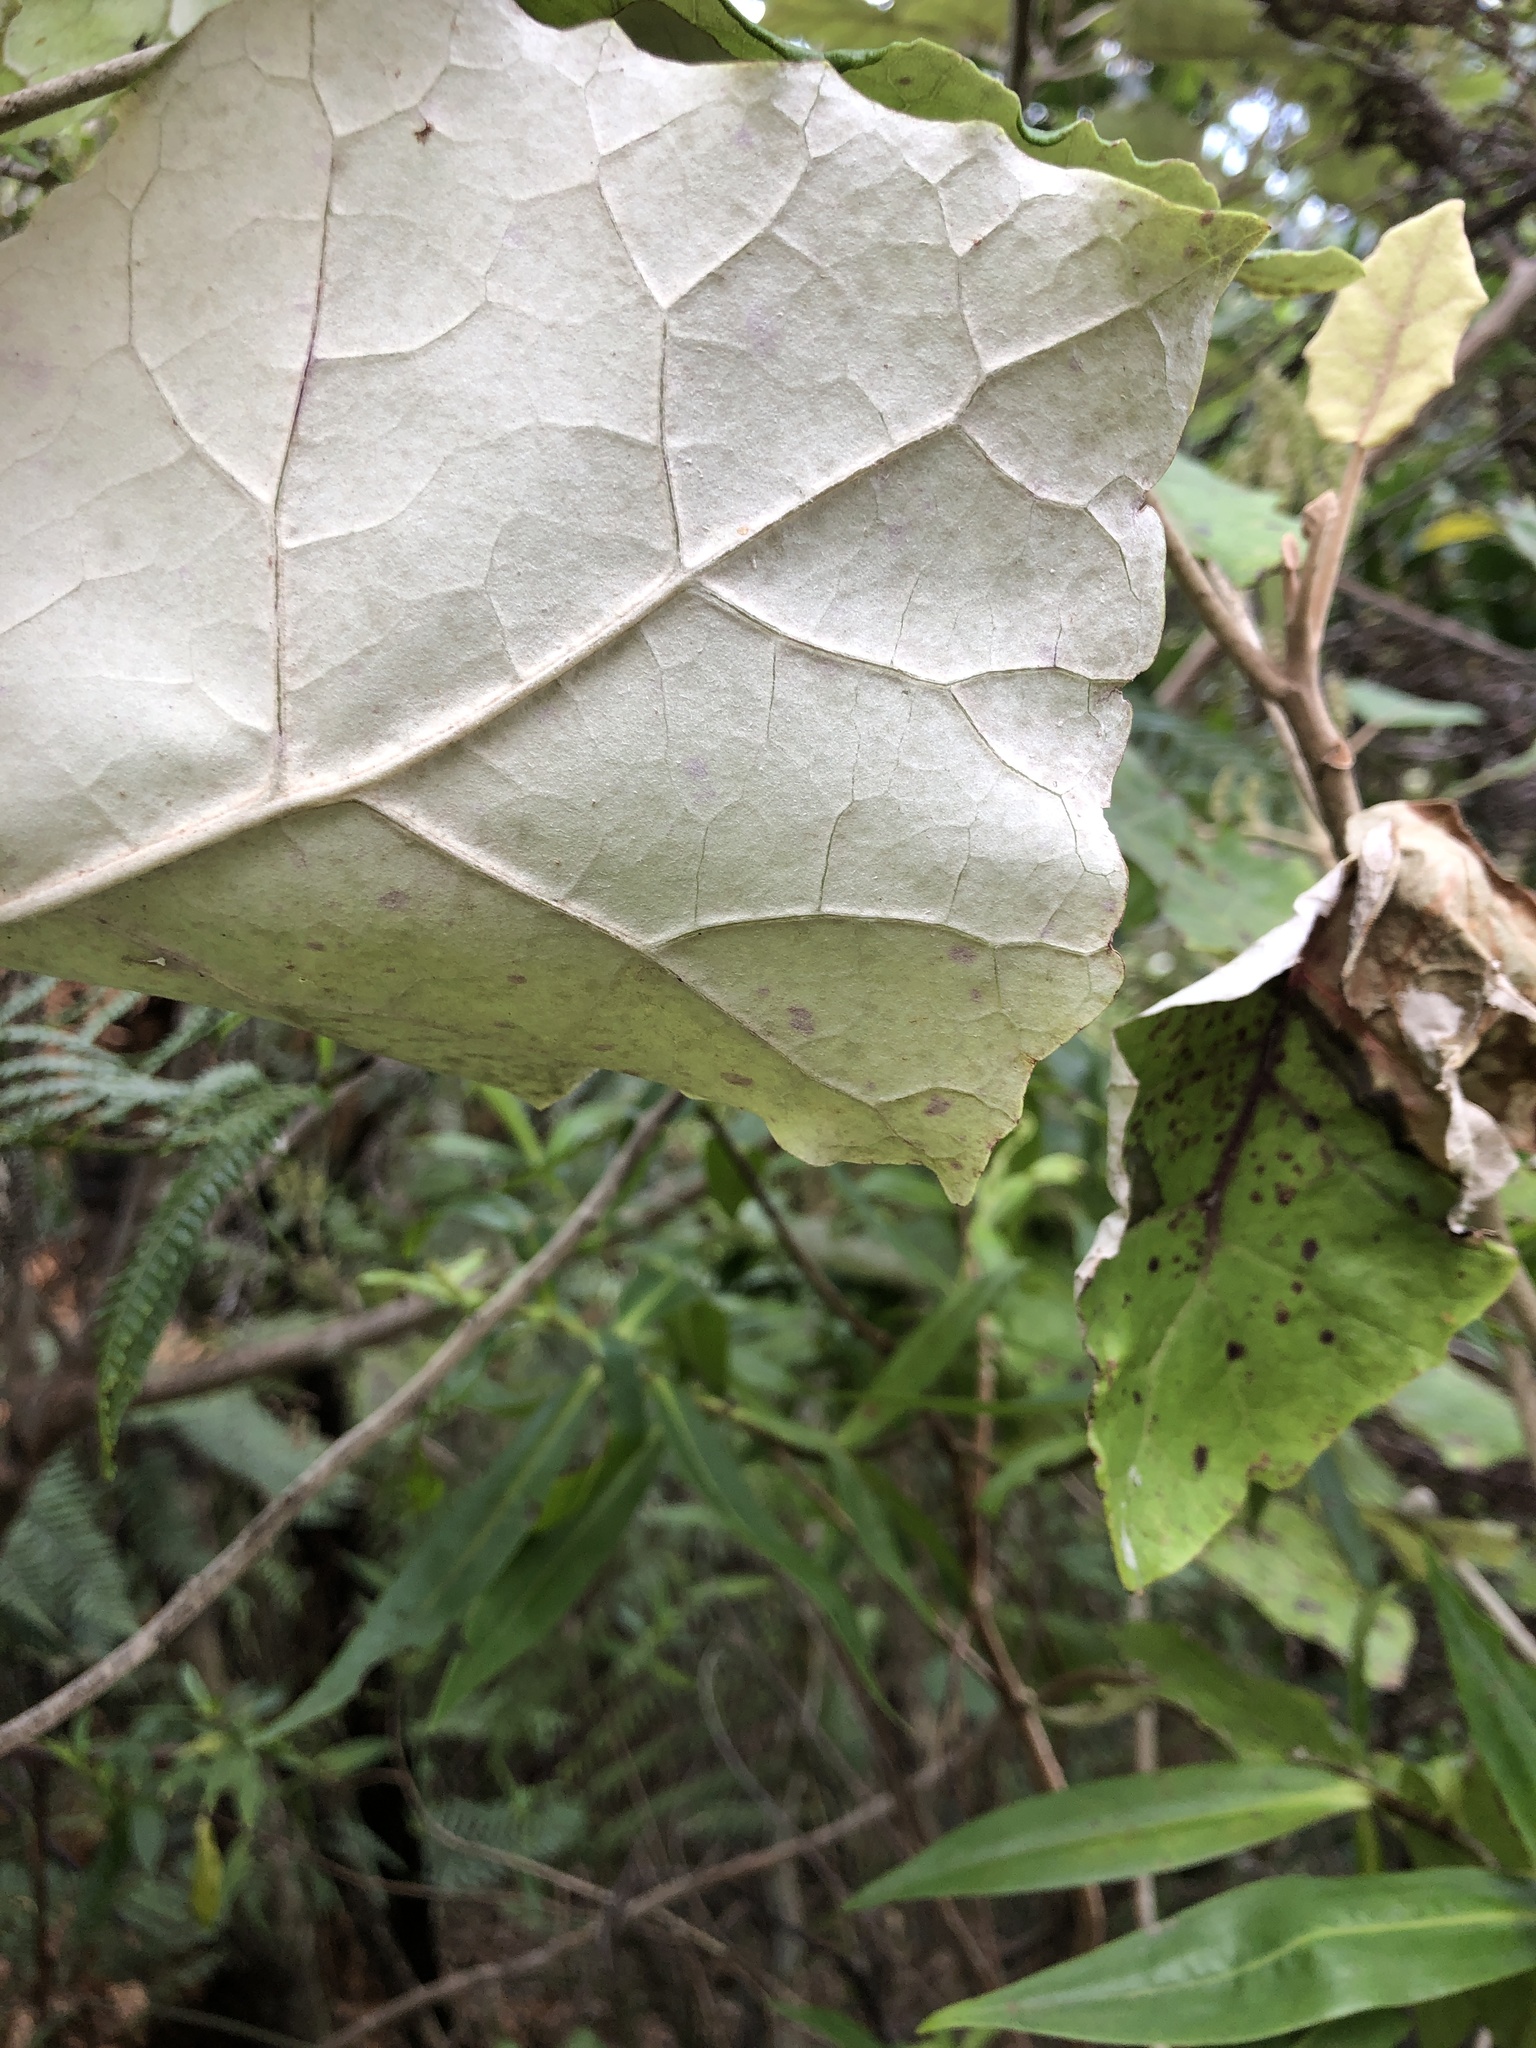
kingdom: Plantae
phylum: Tracheophyta
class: Magnoliopsida
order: Asterales
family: Asteraceae
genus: Brachyglottis
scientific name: Brachyglottis repanda
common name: Hedge ragwort
